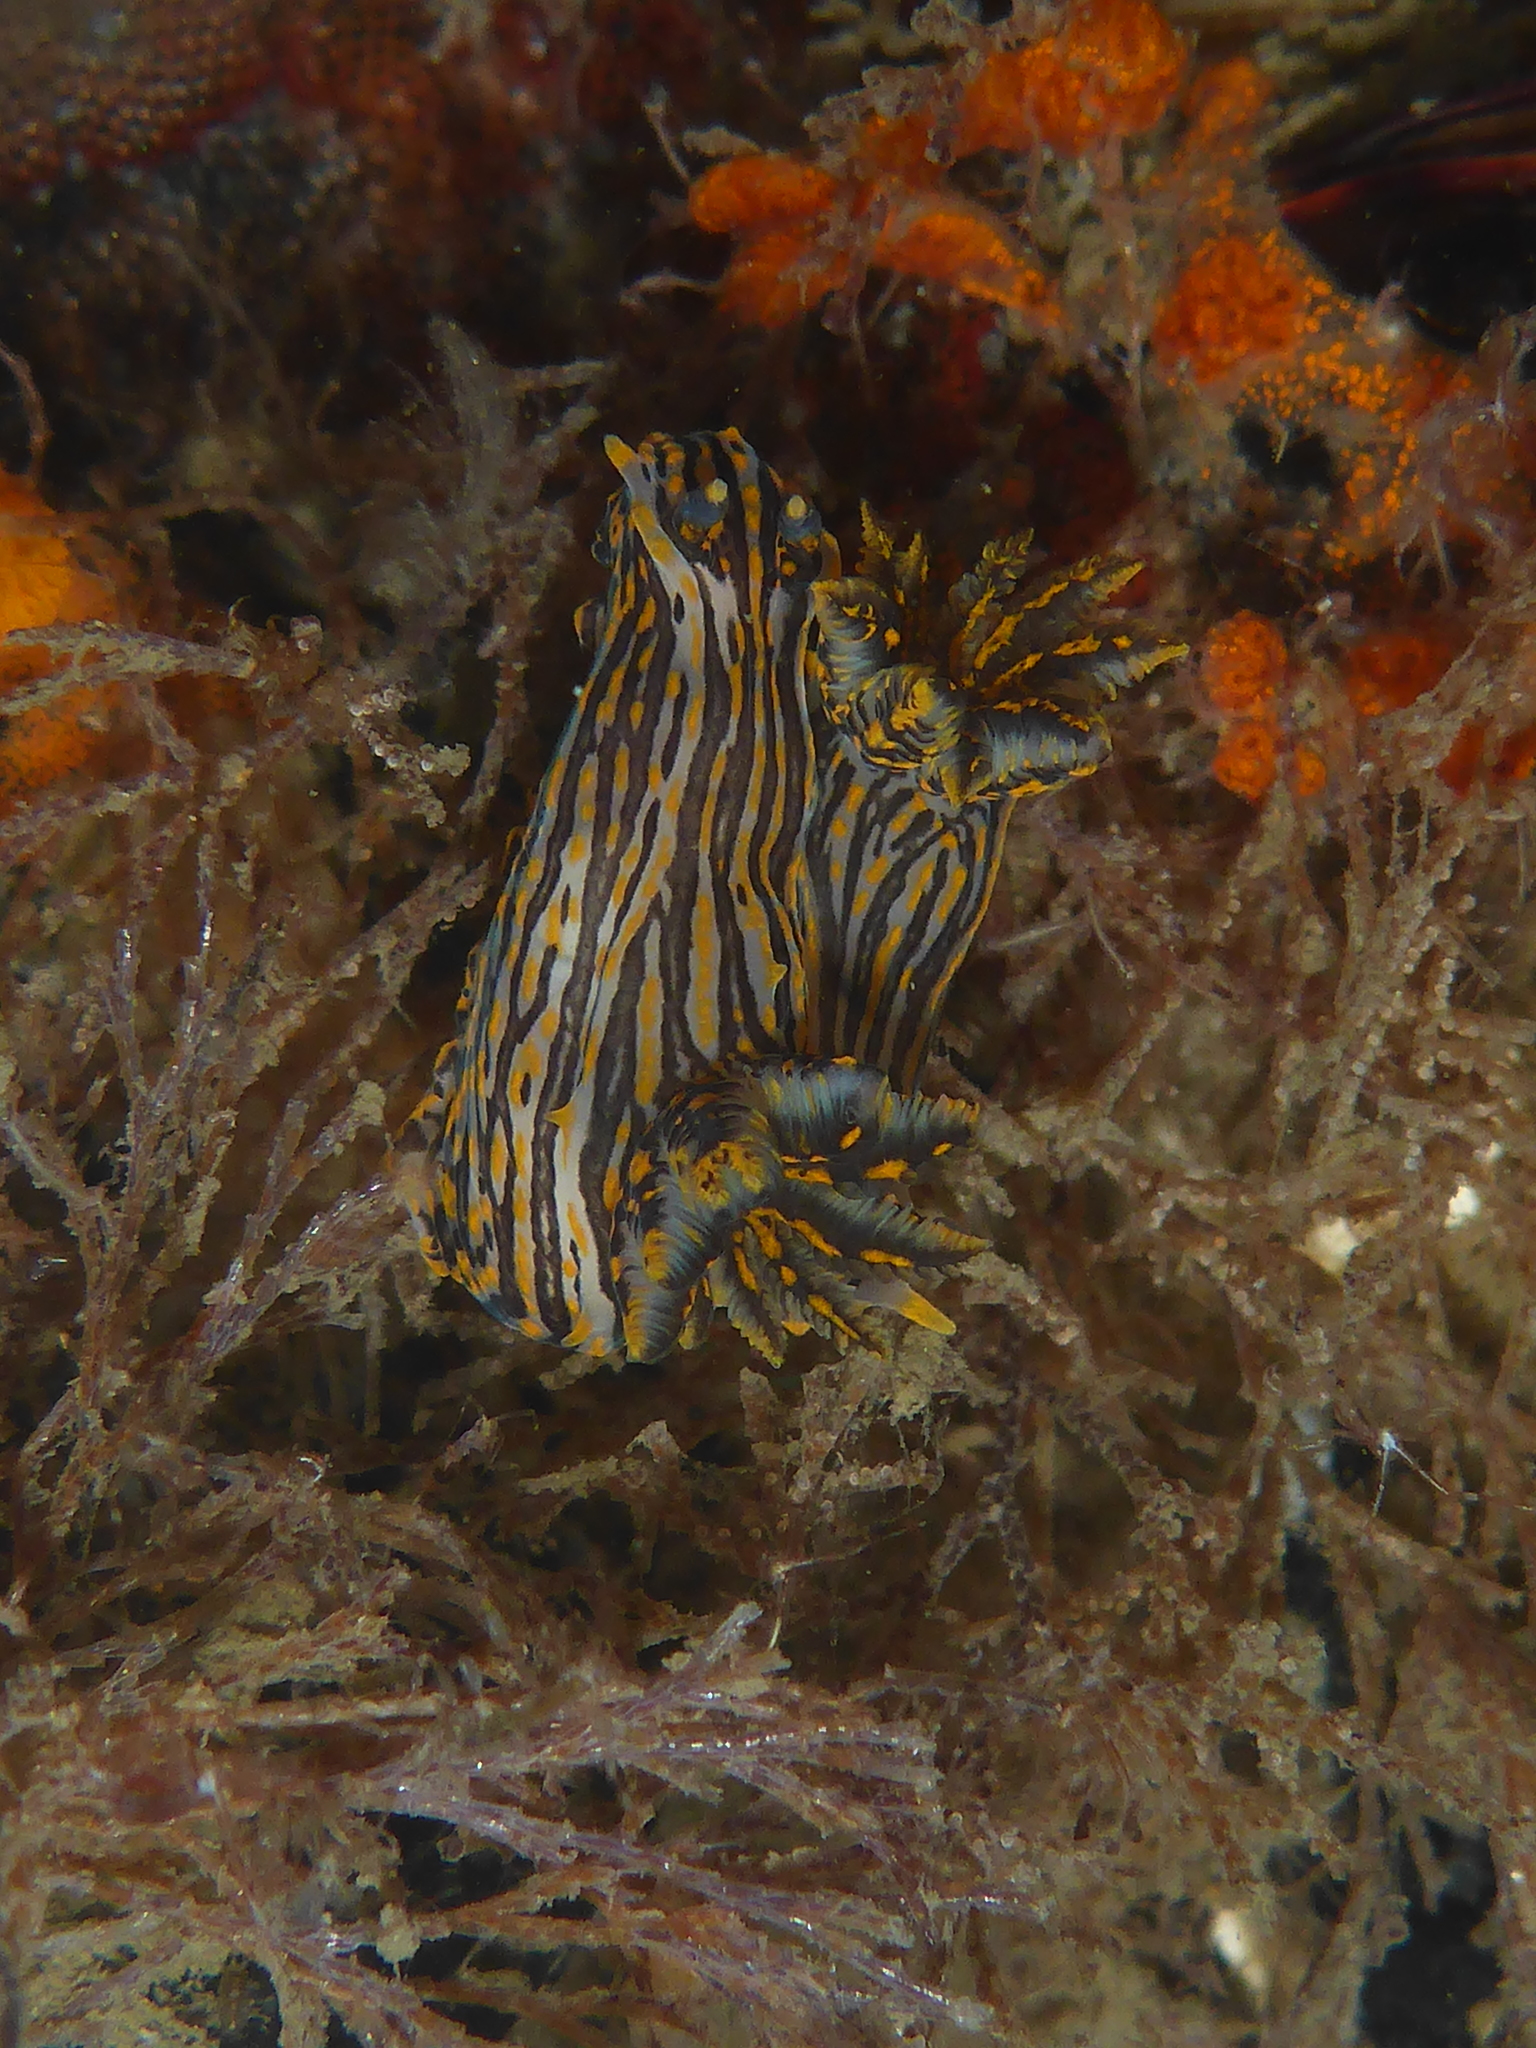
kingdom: Animalia
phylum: Mollusca
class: Gastropoda
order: Nudibranchia
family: Polyceridae
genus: Polycera
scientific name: Polycera atra
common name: Orange-spike polycera
